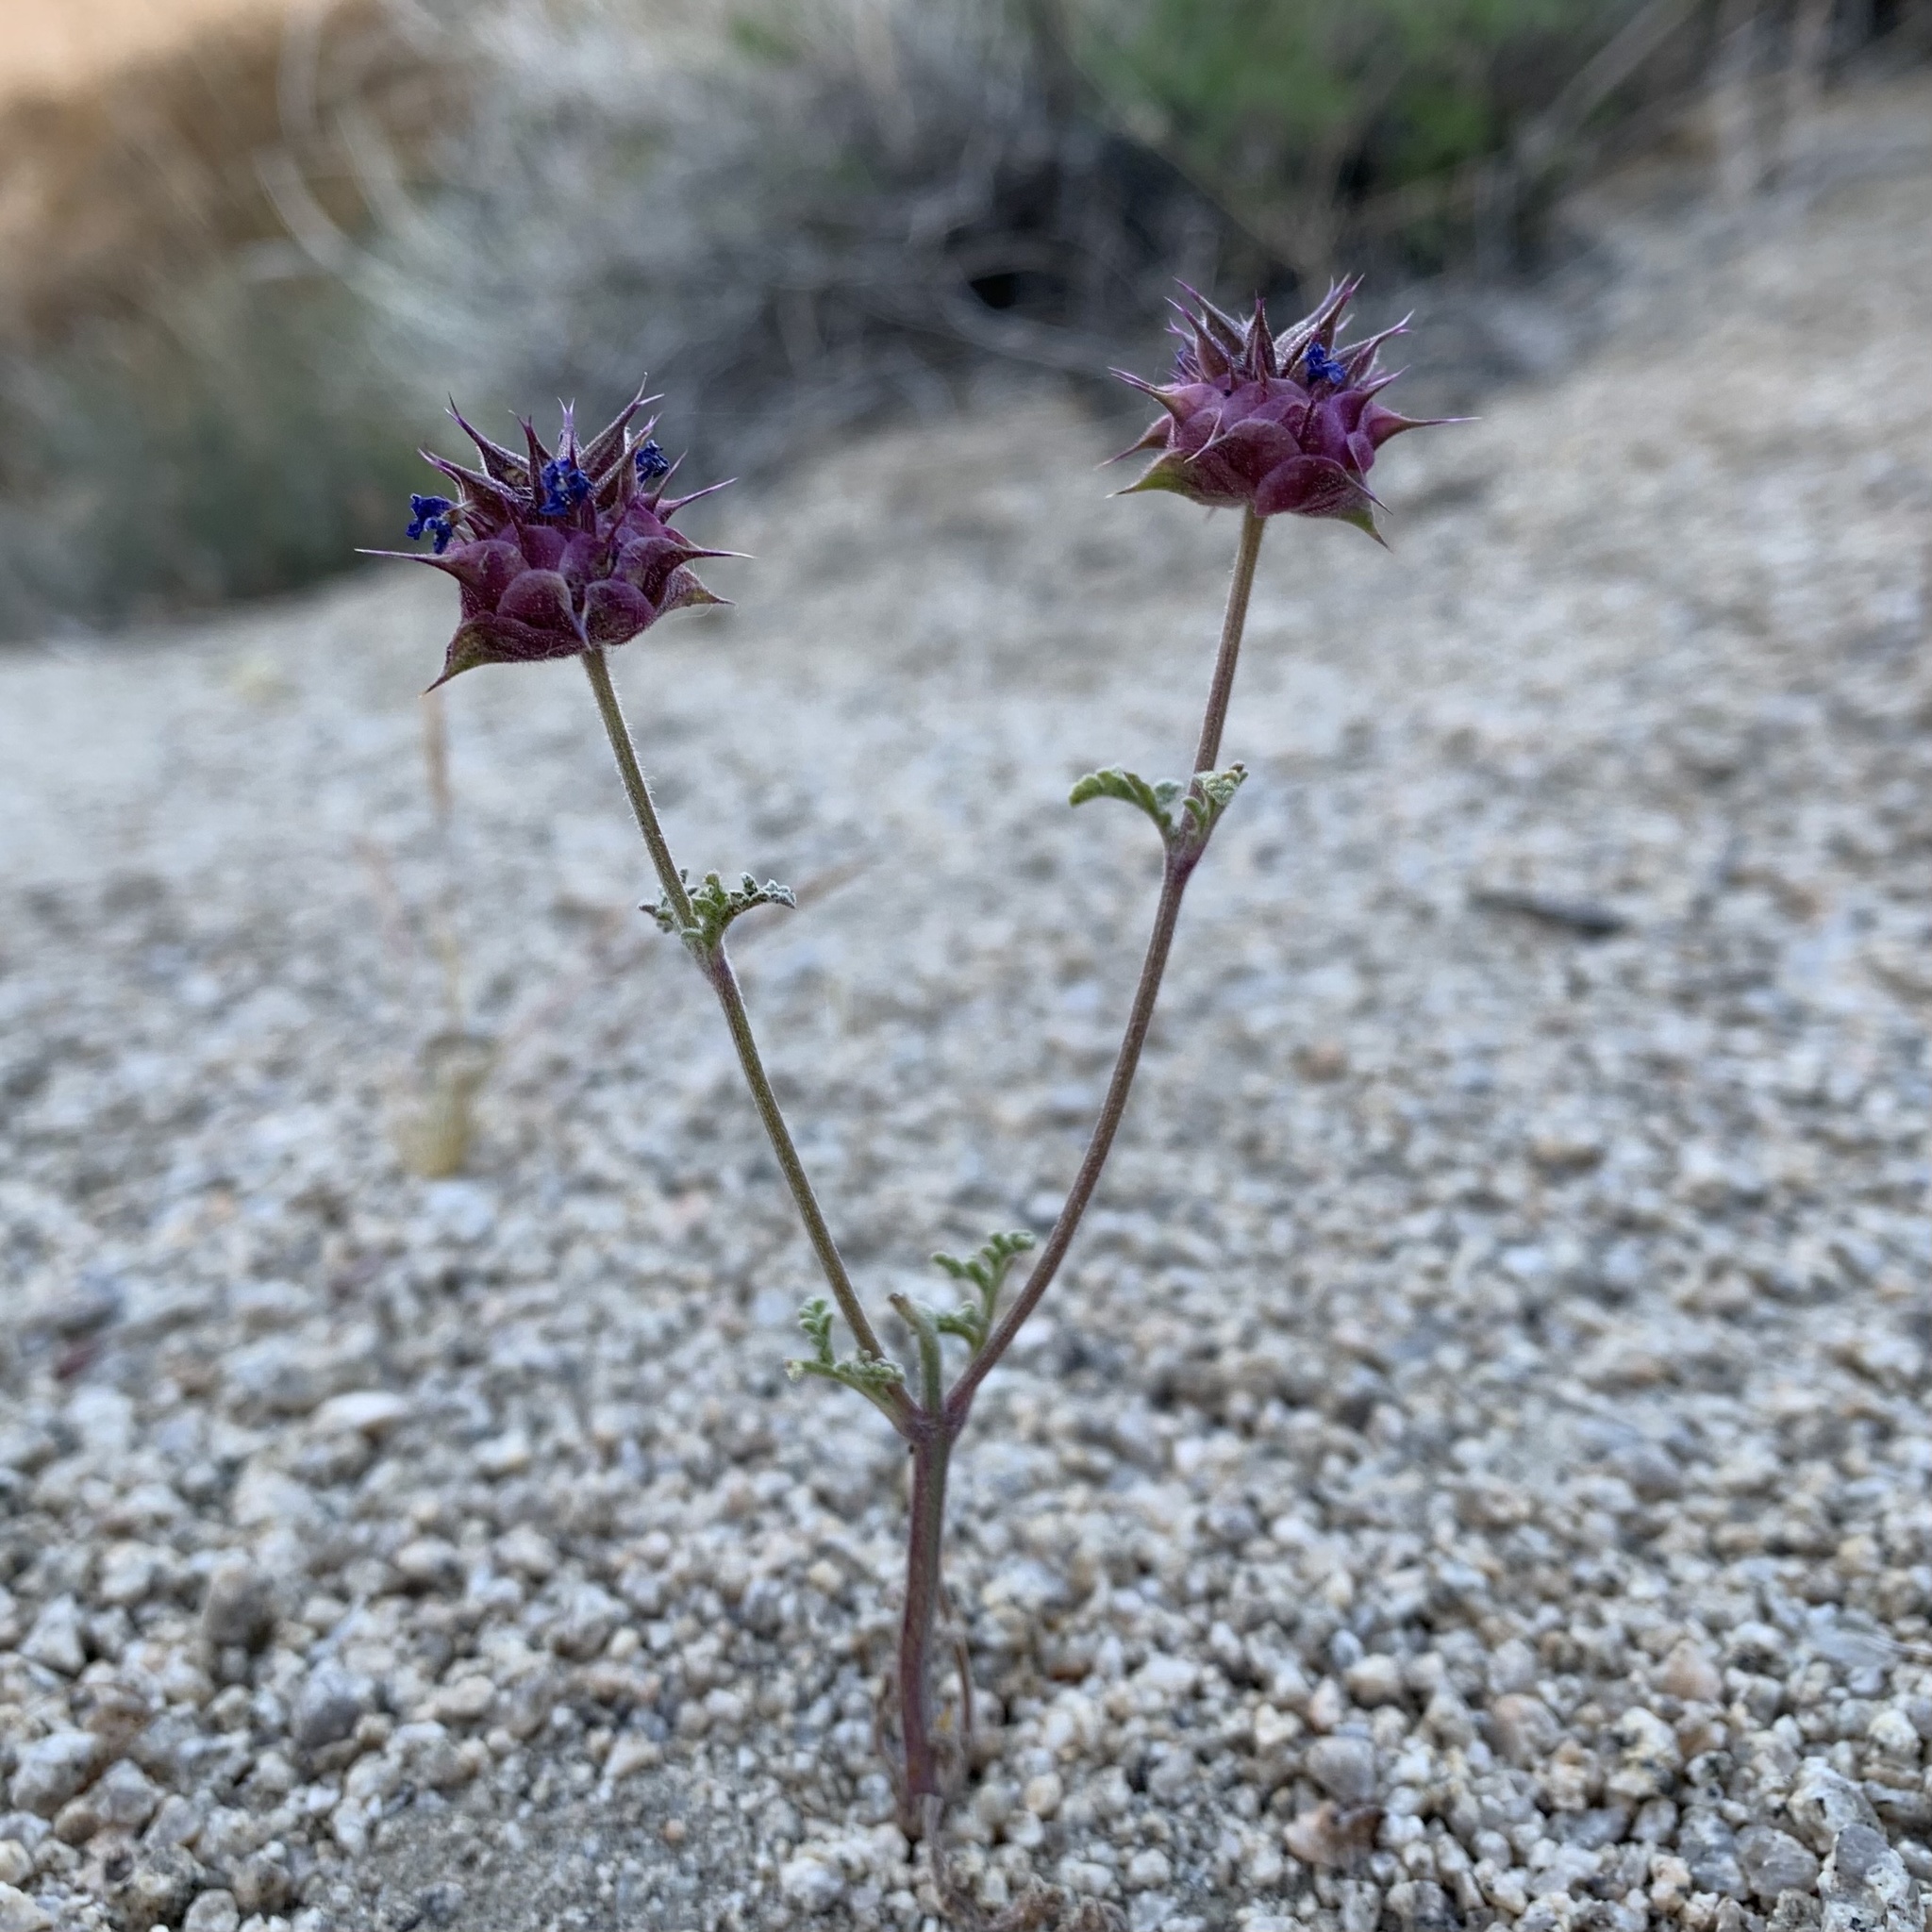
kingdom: Plantae
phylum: Tracheophyta
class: Magnoliopsida
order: Lamiales
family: Lamiaceae
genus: Salvia
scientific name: Salvia columbariae
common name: Chia
